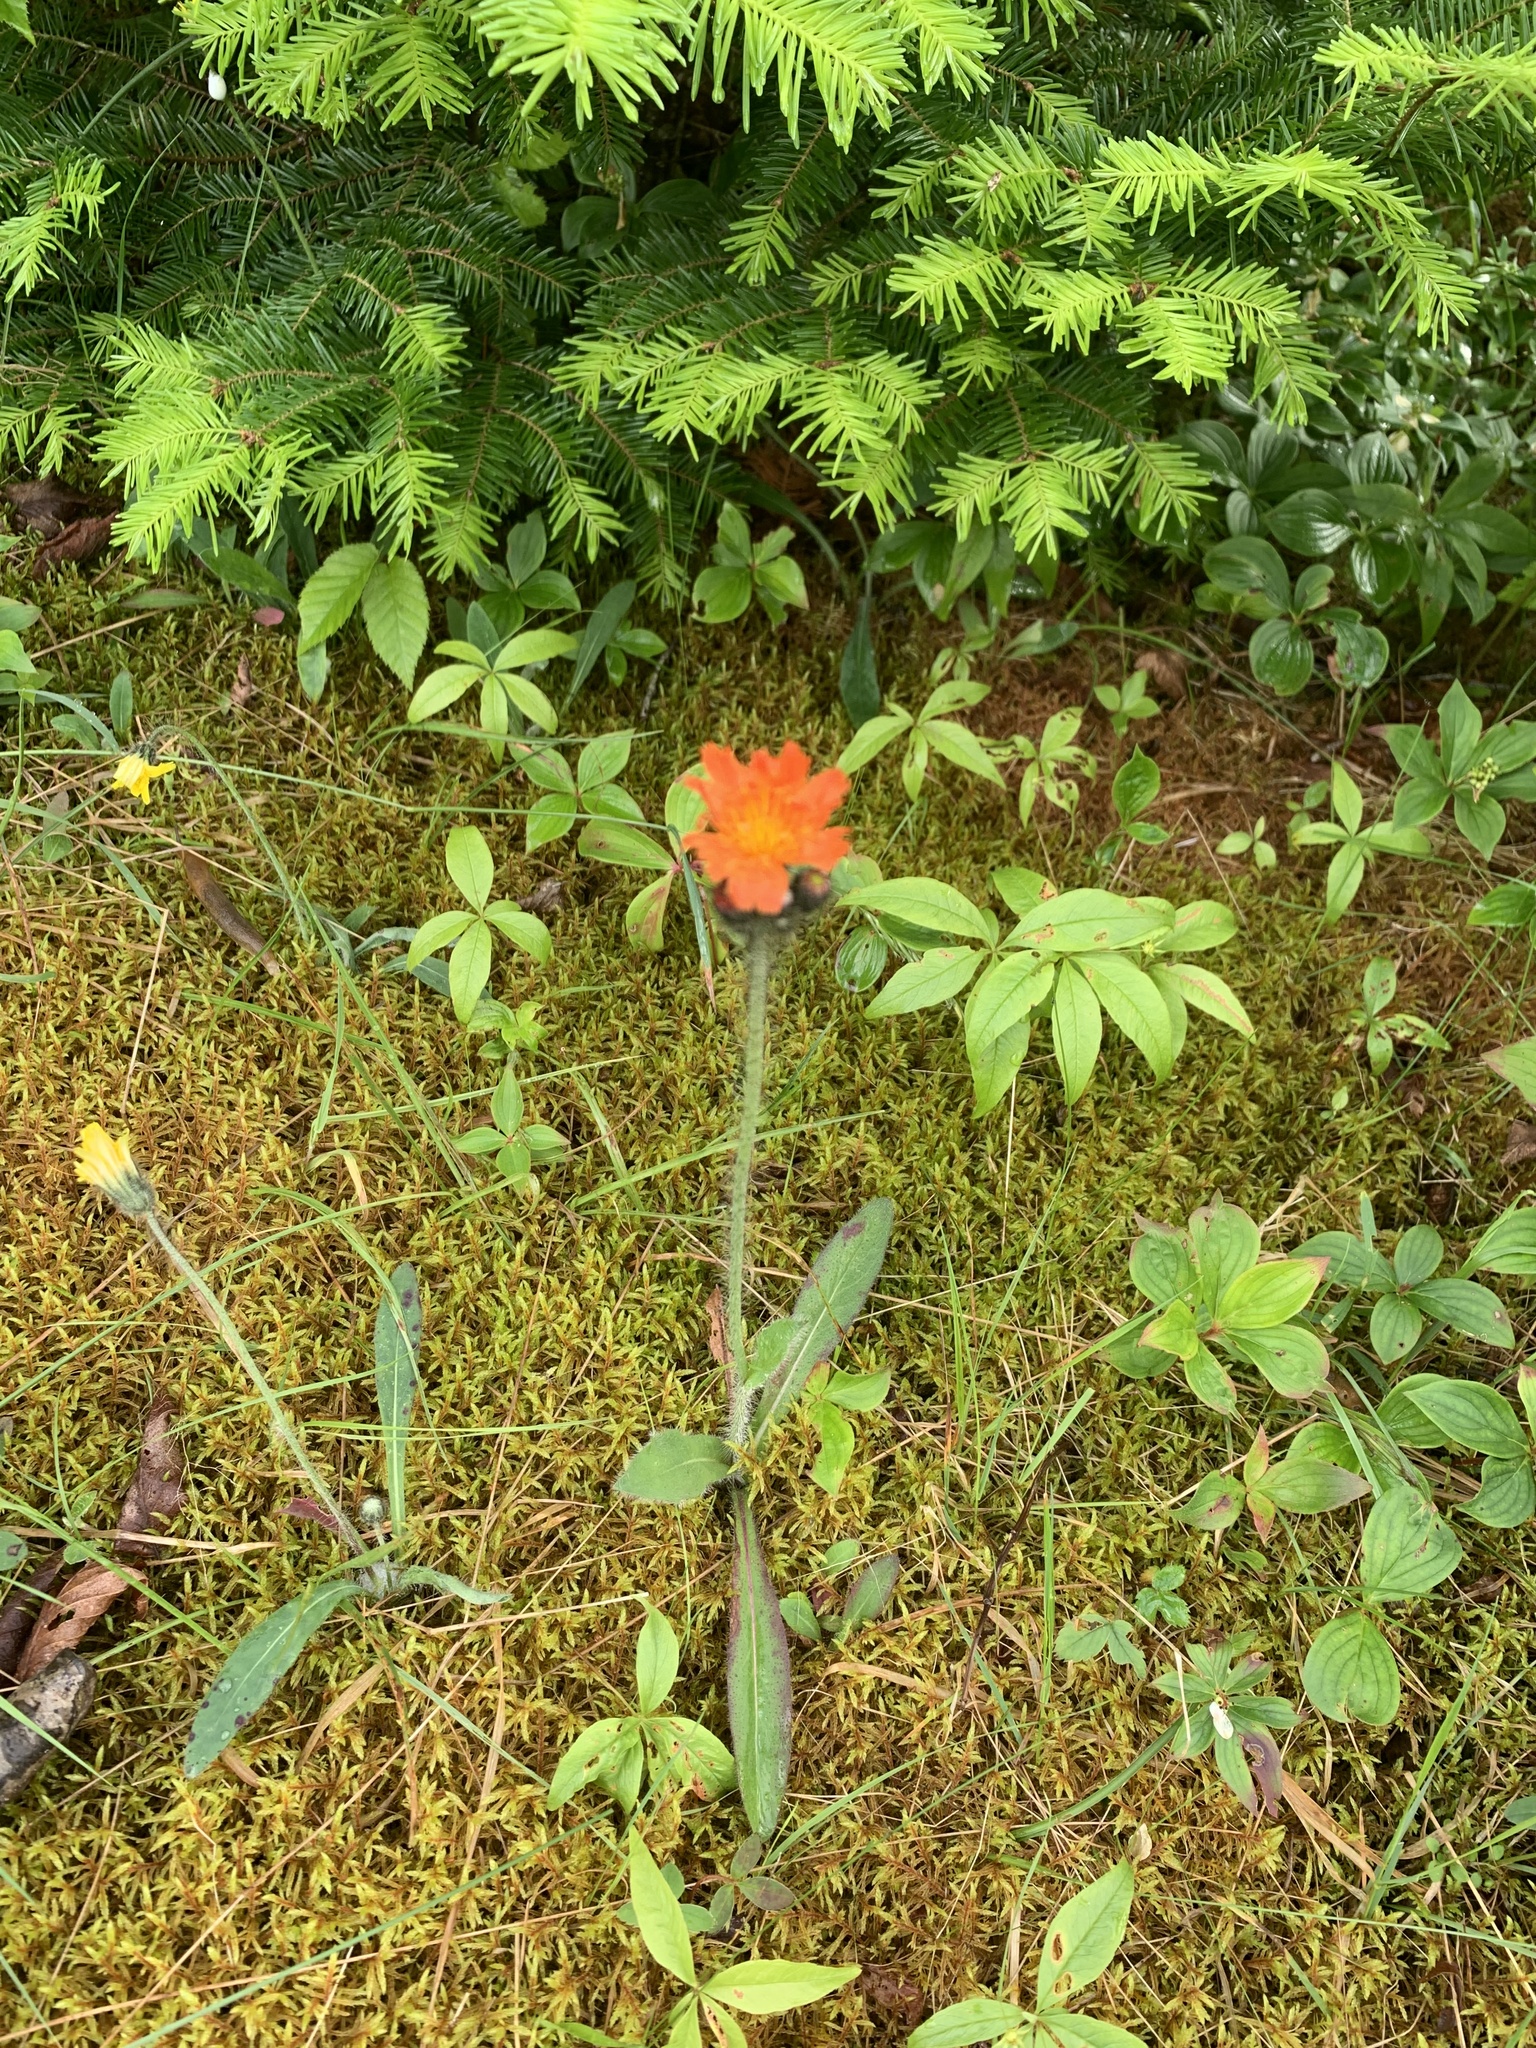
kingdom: Plantae
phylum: Tracheophyta
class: Magnoliopsida
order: Asterales
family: Asteraceae
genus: Pilosella
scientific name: Pilosella aurantiaca
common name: Fox-and-cubs
